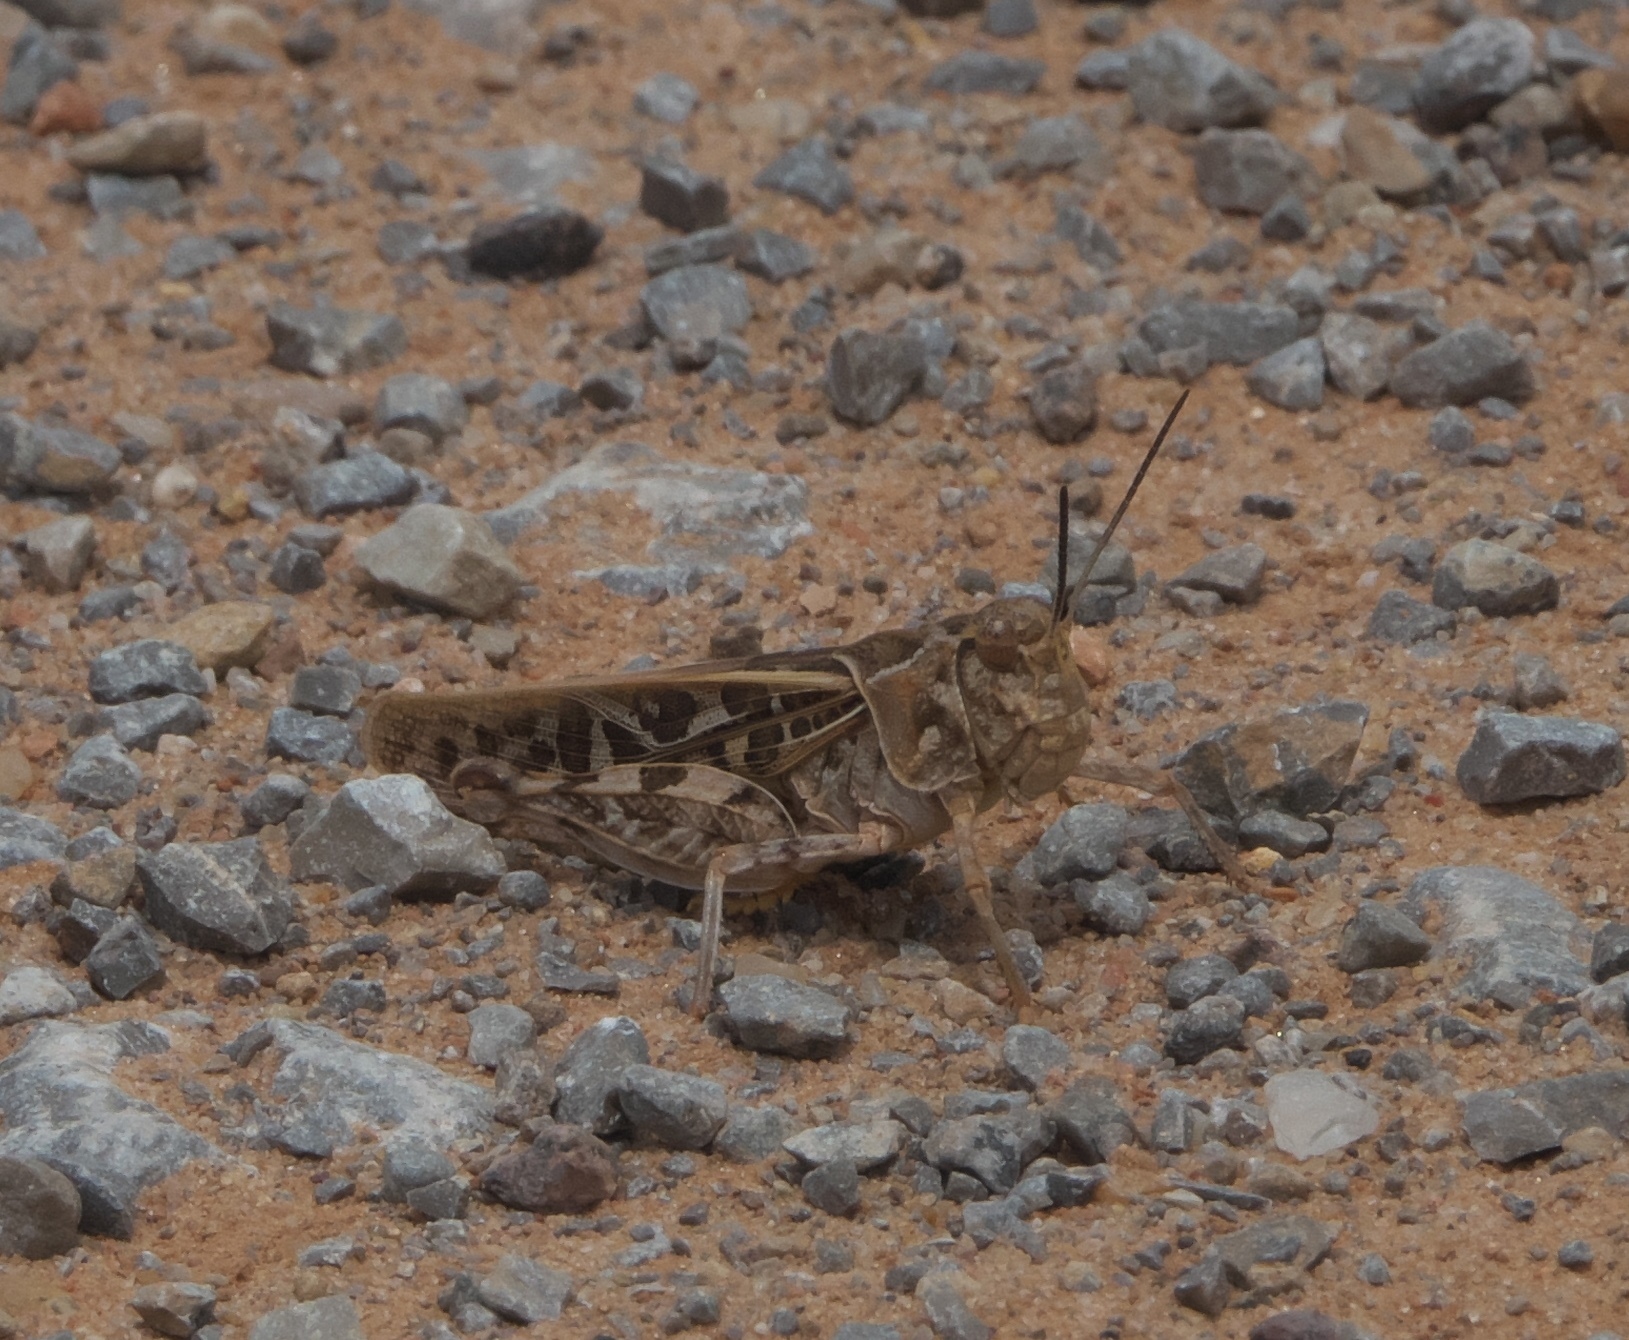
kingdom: Animalia
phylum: Arthropoda
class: Insecta
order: Orthoptera
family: Acrididae
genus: Pardalophora
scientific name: Pardalophora saussurei
